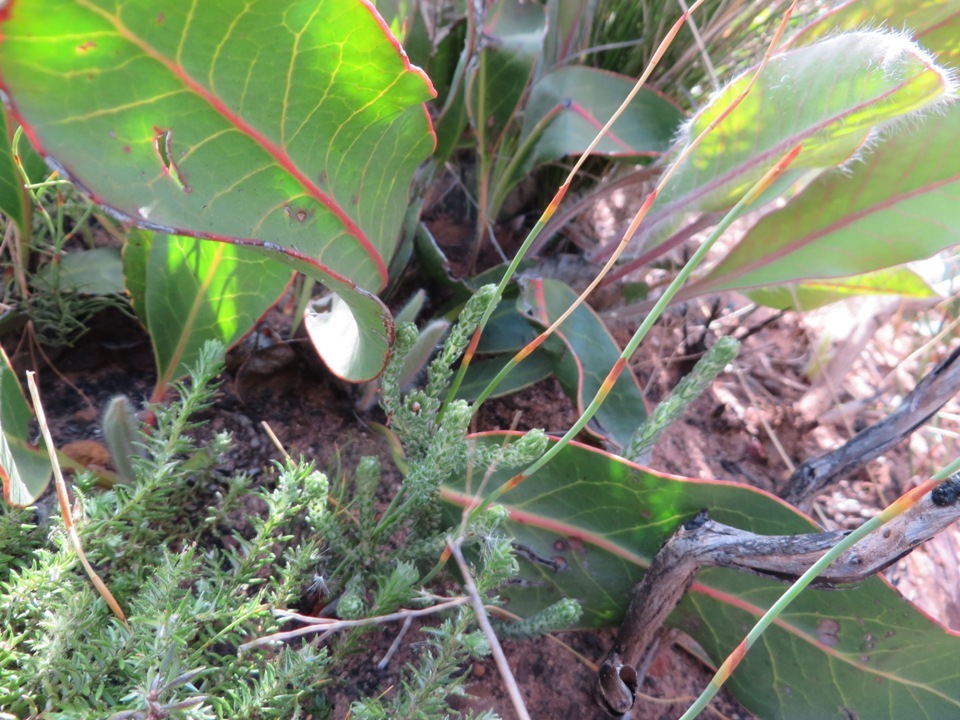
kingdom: Plantae
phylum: Tracheophyta
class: Magnoliopsida
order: Proteales
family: Proteaceae
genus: Protea
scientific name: Protea scolopendriifolia
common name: Harts-tongue-fern sugarbush
